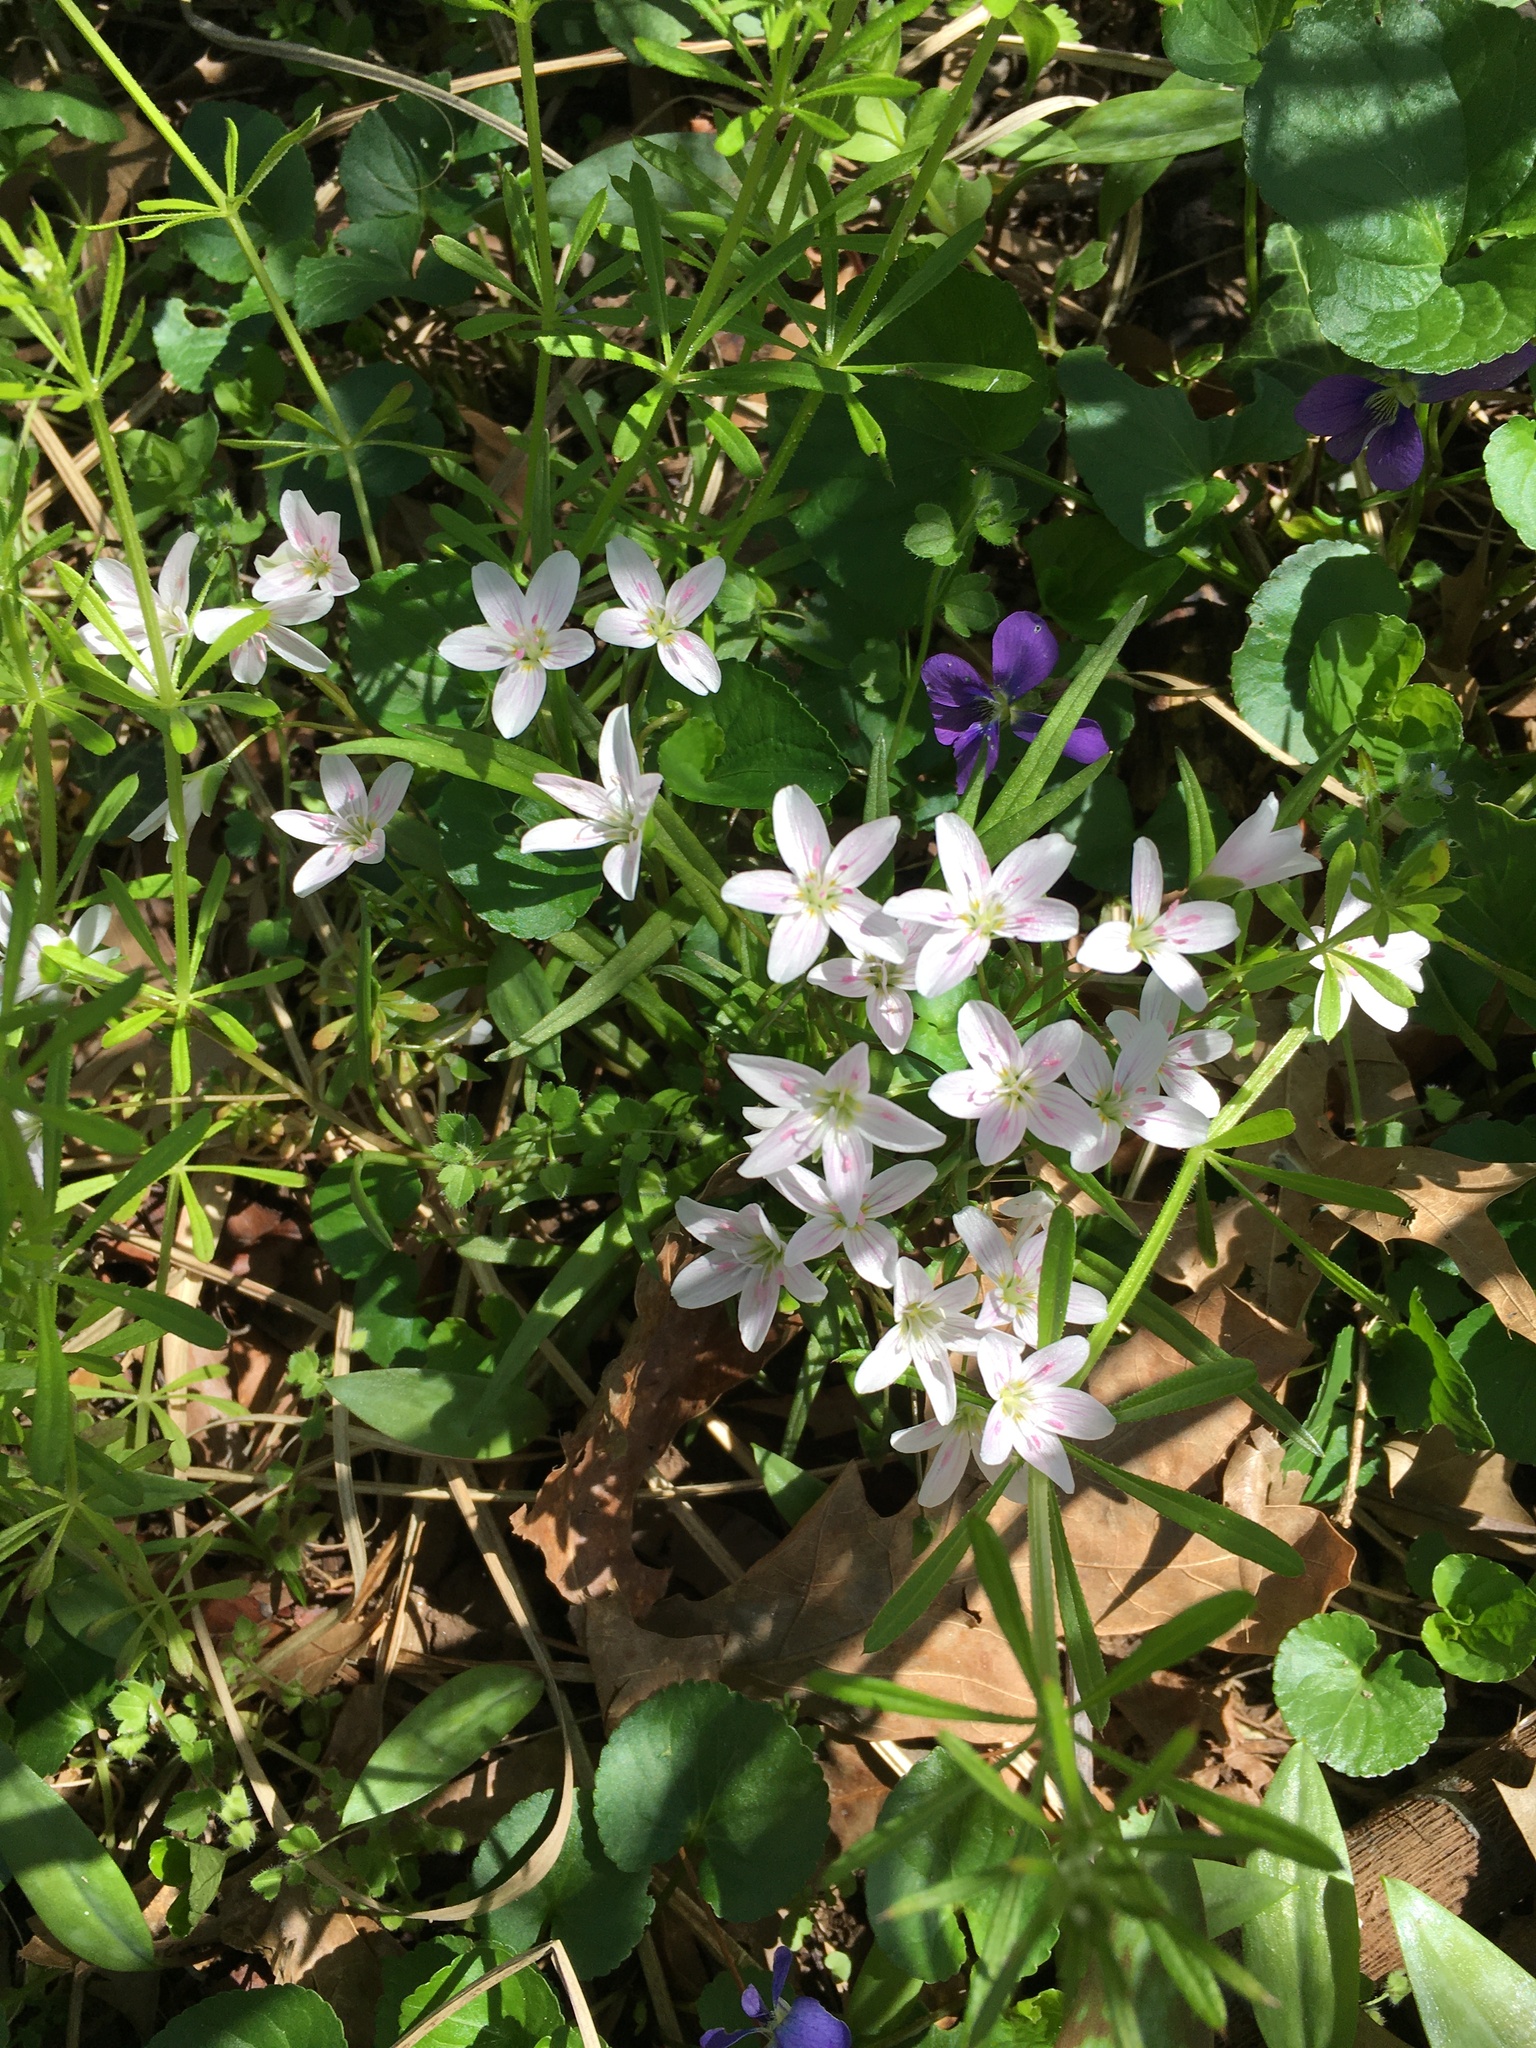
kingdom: Plantae
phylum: Tracheophyta
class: Magnoliopsida
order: Caryophyllales
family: Montiaceae
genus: Claytonia
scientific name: Claytonia virginica
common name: Virginia springbeauty
